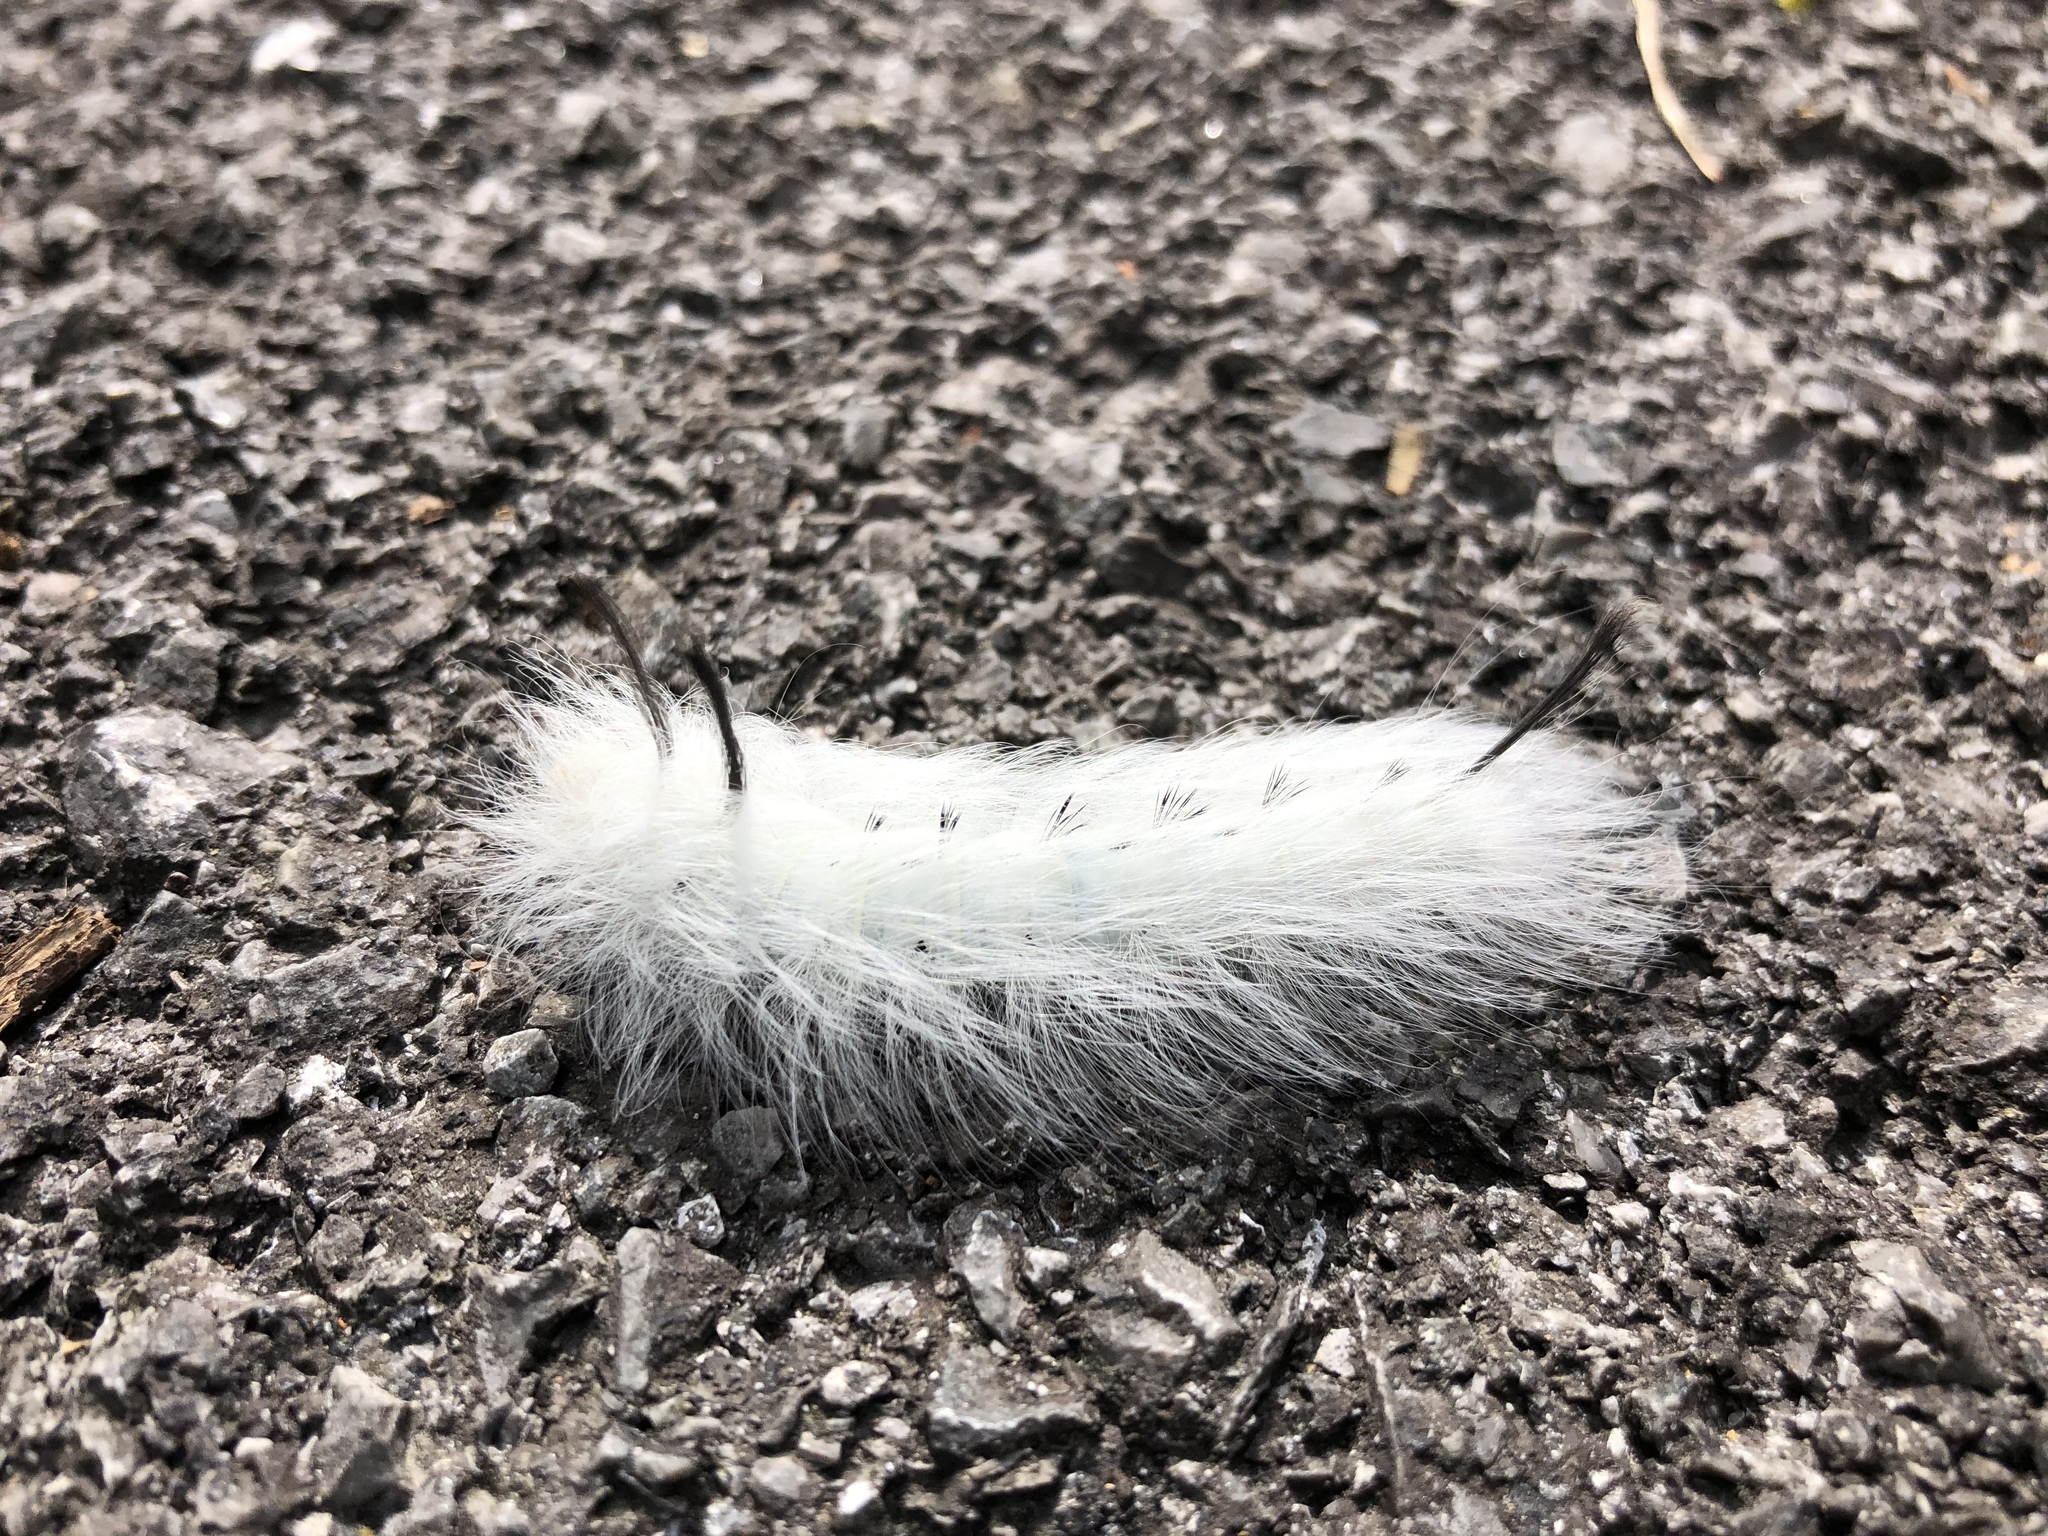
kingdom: Animalia
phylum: Arthropoda
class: Insecta
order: Lepidoptera
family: Apatelodidae
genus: Hygrochroa
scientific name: Hygrochroa Apatelodes torrefacta
